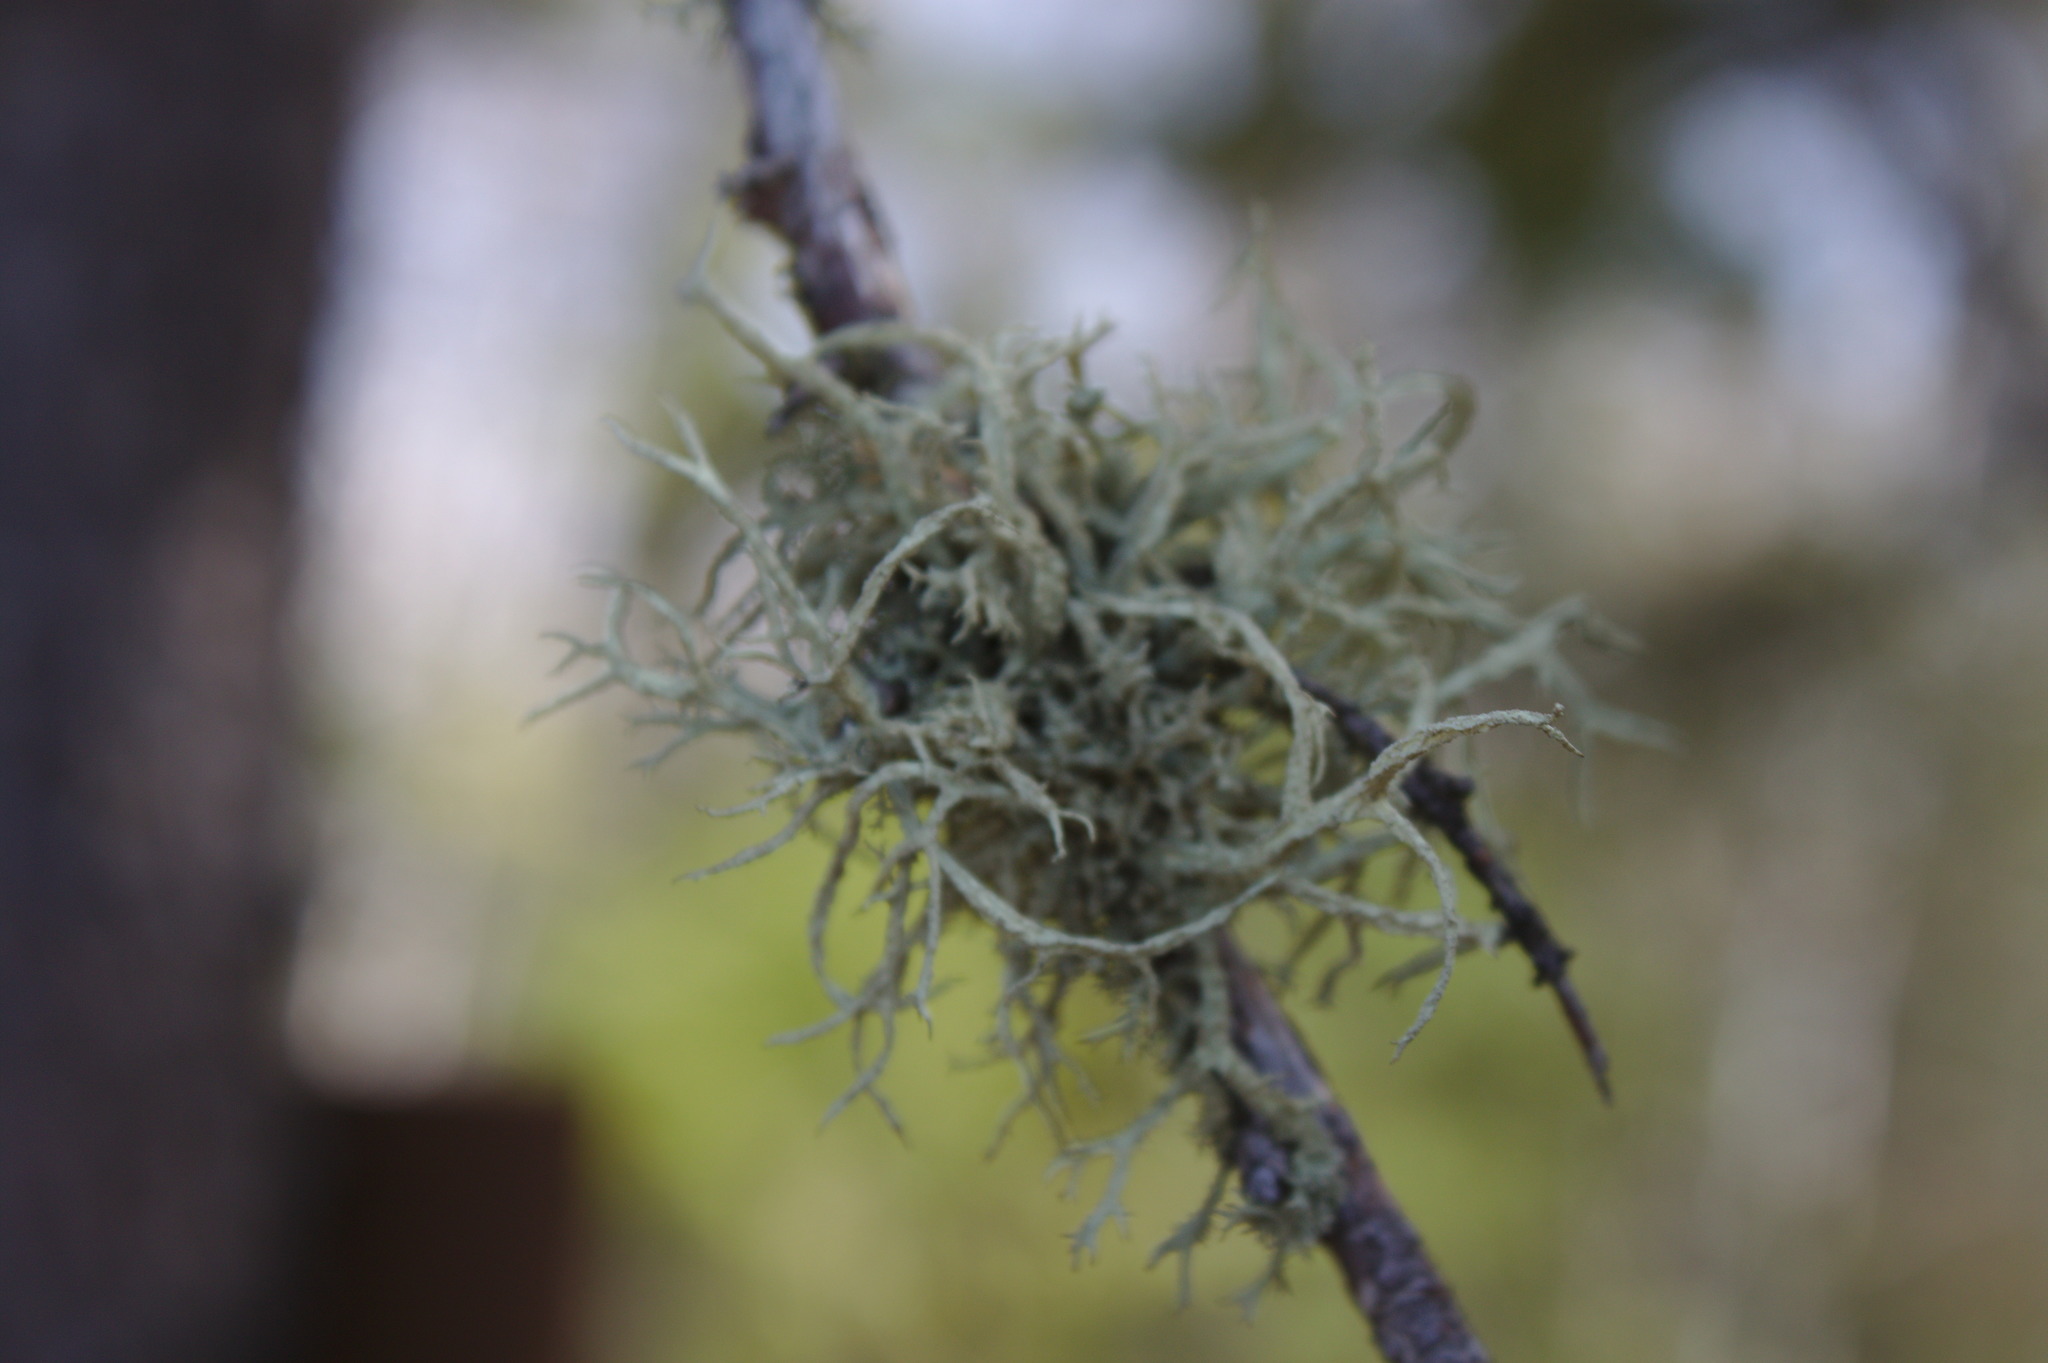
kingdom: Fungi
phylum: Ascomycota
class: Lecanoromycetes
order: Lecanorales
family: Parmeliaceae
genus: Evernia
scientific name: Evernia mesomorpha
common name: Boreal oak moss lichen
